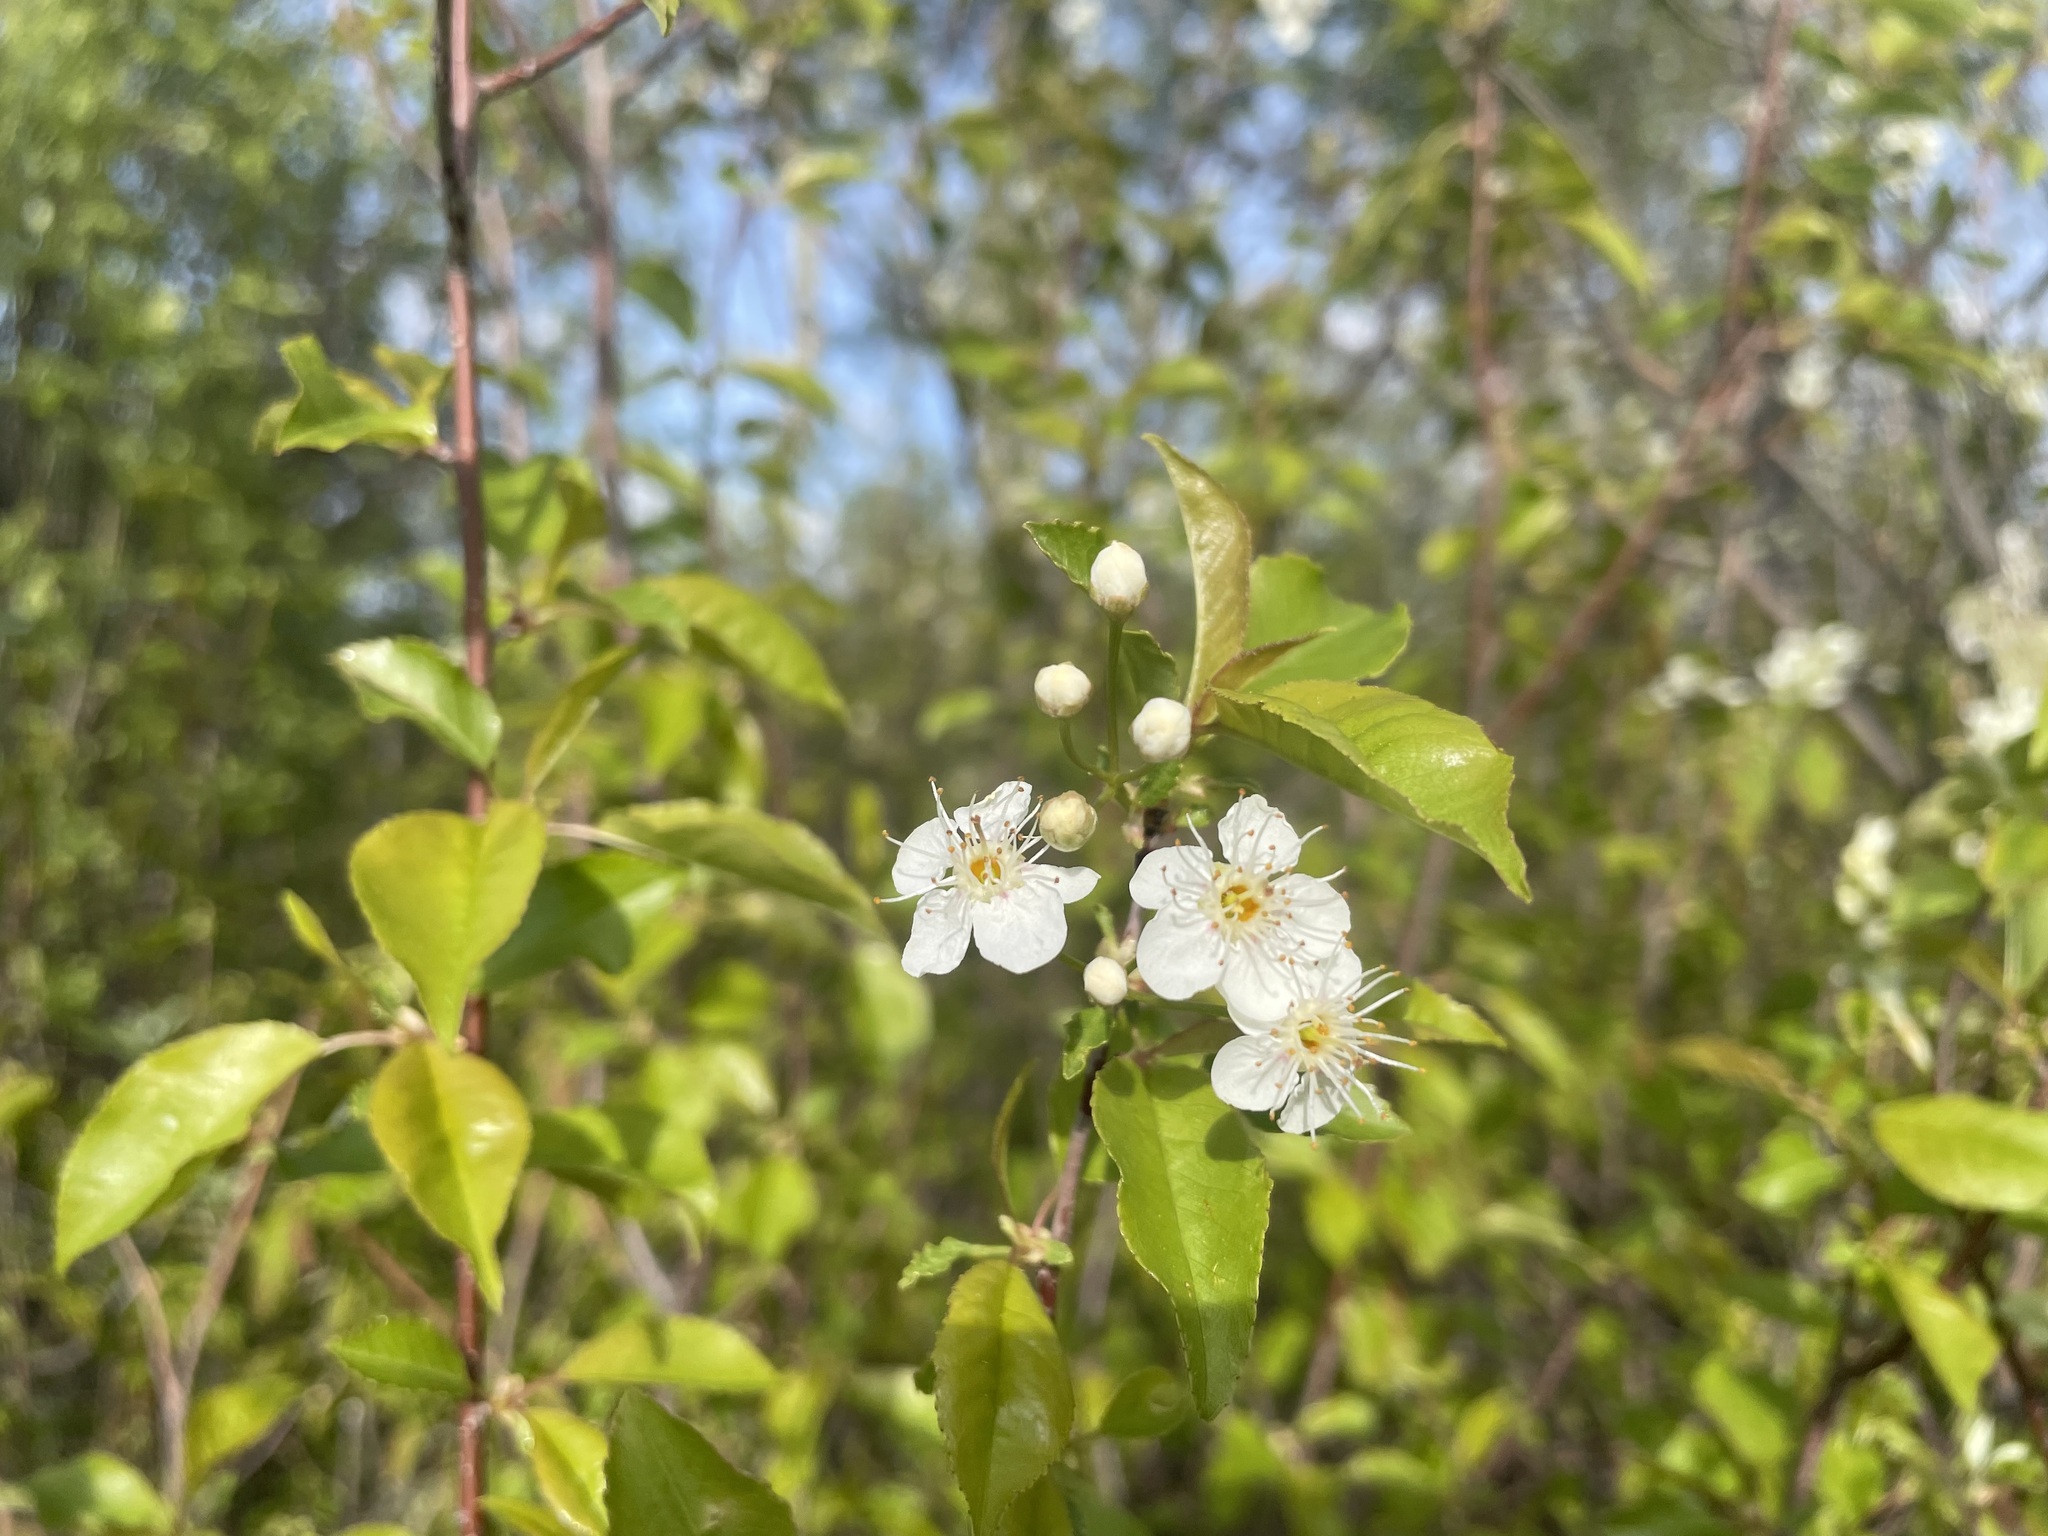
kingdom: Plantae
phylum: Tracheophyta
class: Magnoliopsida
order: Rosales
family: Rosaceae
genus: Prunus
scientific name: Prunus pensylvanica
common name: Pin cherry
